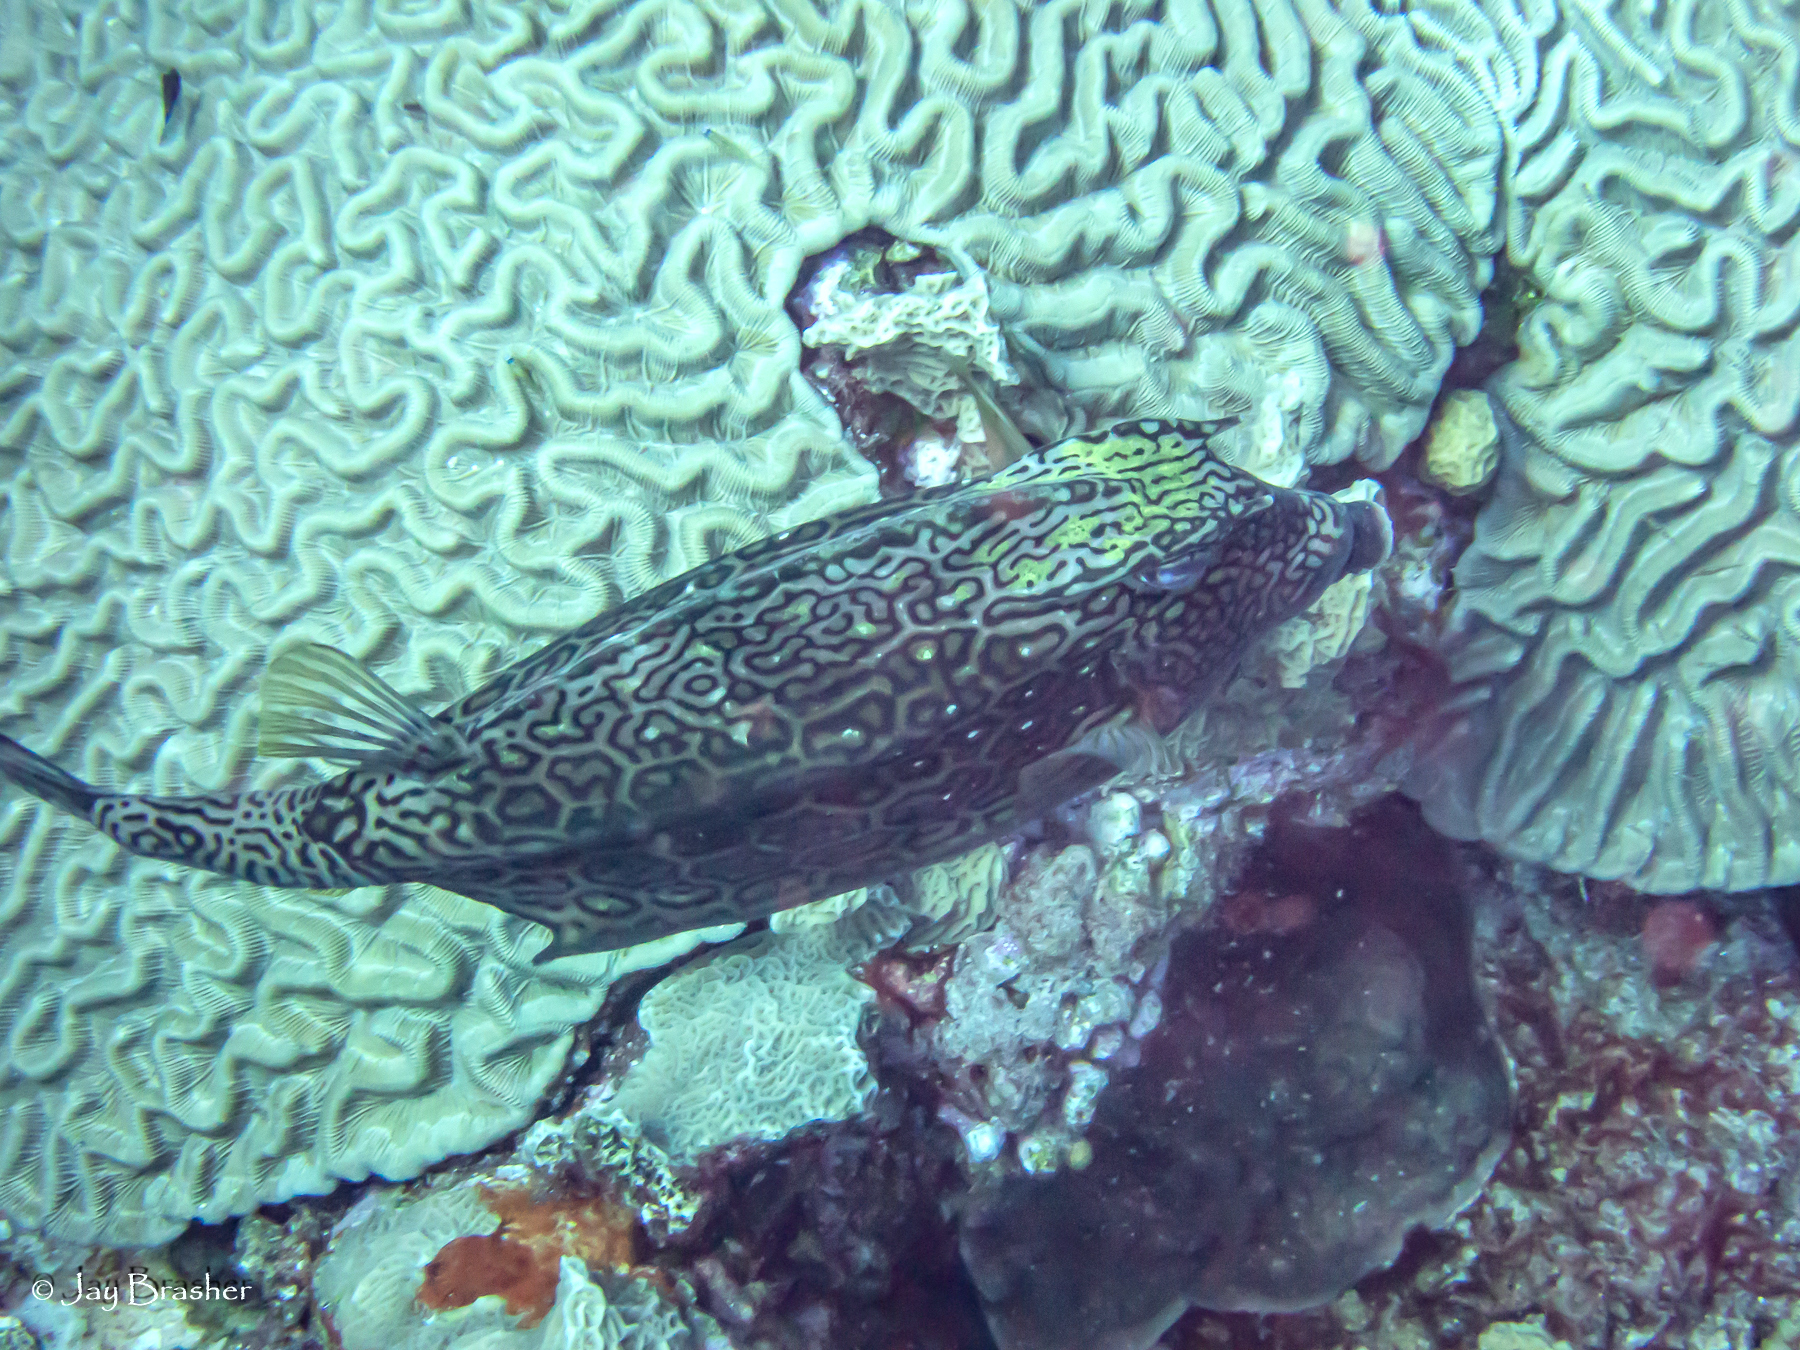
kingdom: Animalia
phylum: Chordata
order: Tetraodontiformes
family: Ostraciidae
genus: Acanthostracion
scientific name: Acanthostracion polygonius
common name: Honeycomb cowfish
